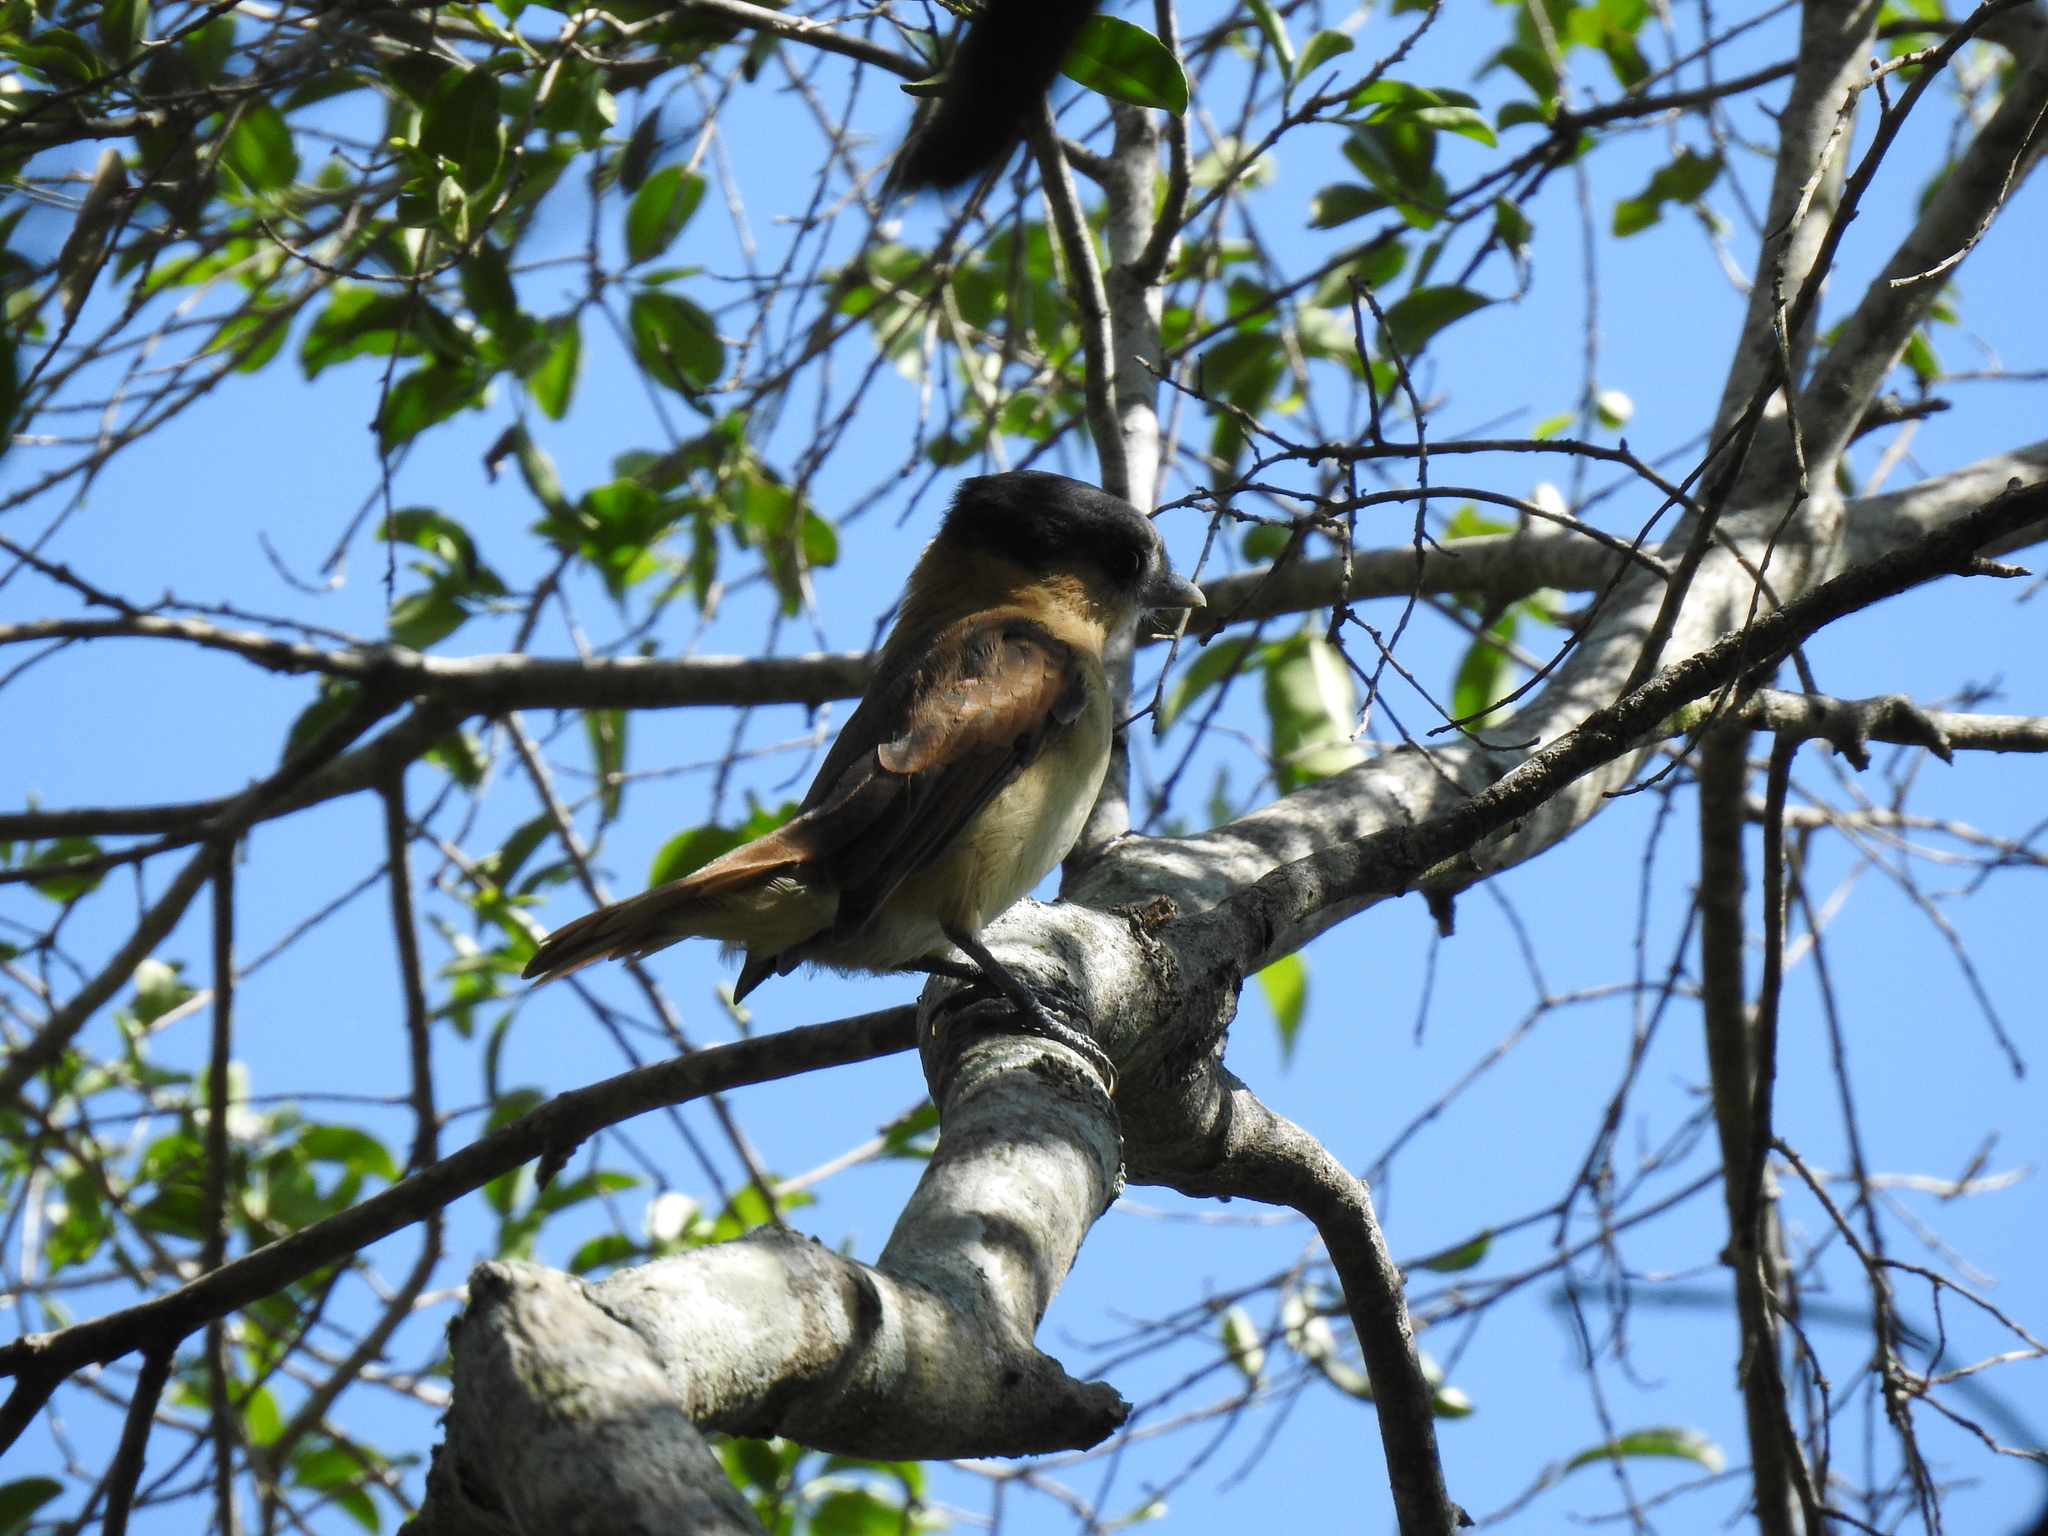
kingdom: Animalia
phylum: Chordata
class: Aves
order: Passeriformes
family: Cotingidae
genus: Pachyramphus
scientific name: Pachyramphus aglaiae
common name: Rose-throated becard
